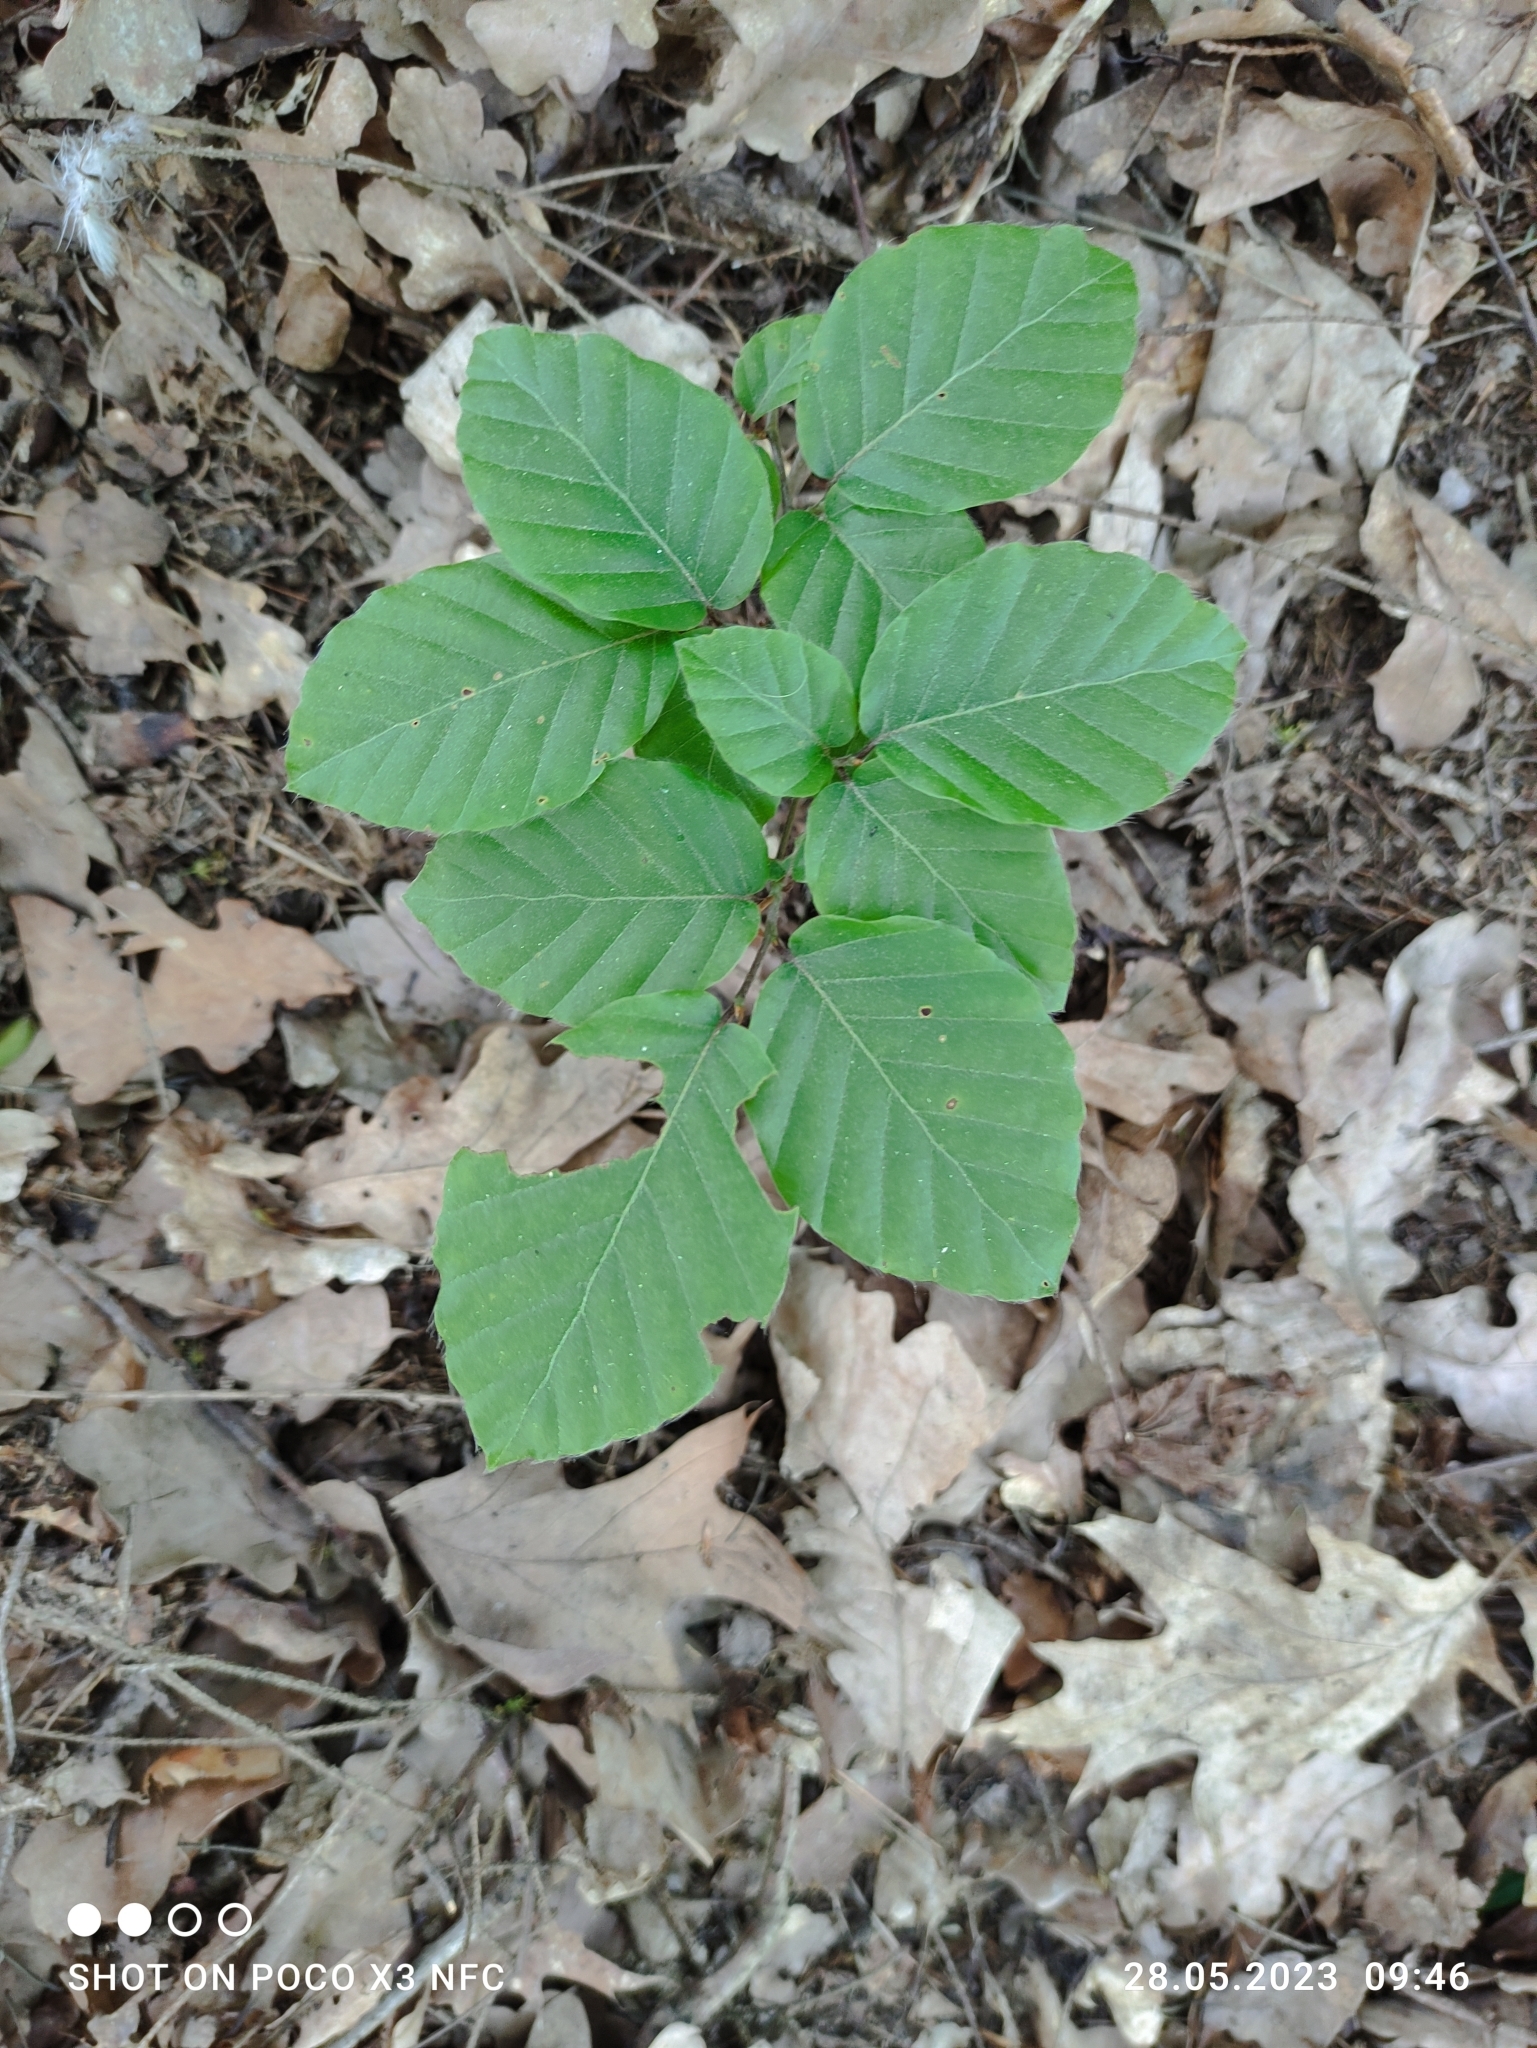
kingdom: Plantae
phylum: Tracheophyta
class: Magnoliopsida
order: Fagales
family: Fagaceae
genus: Fagus
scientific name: Fagus sylvatica
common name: Beech
